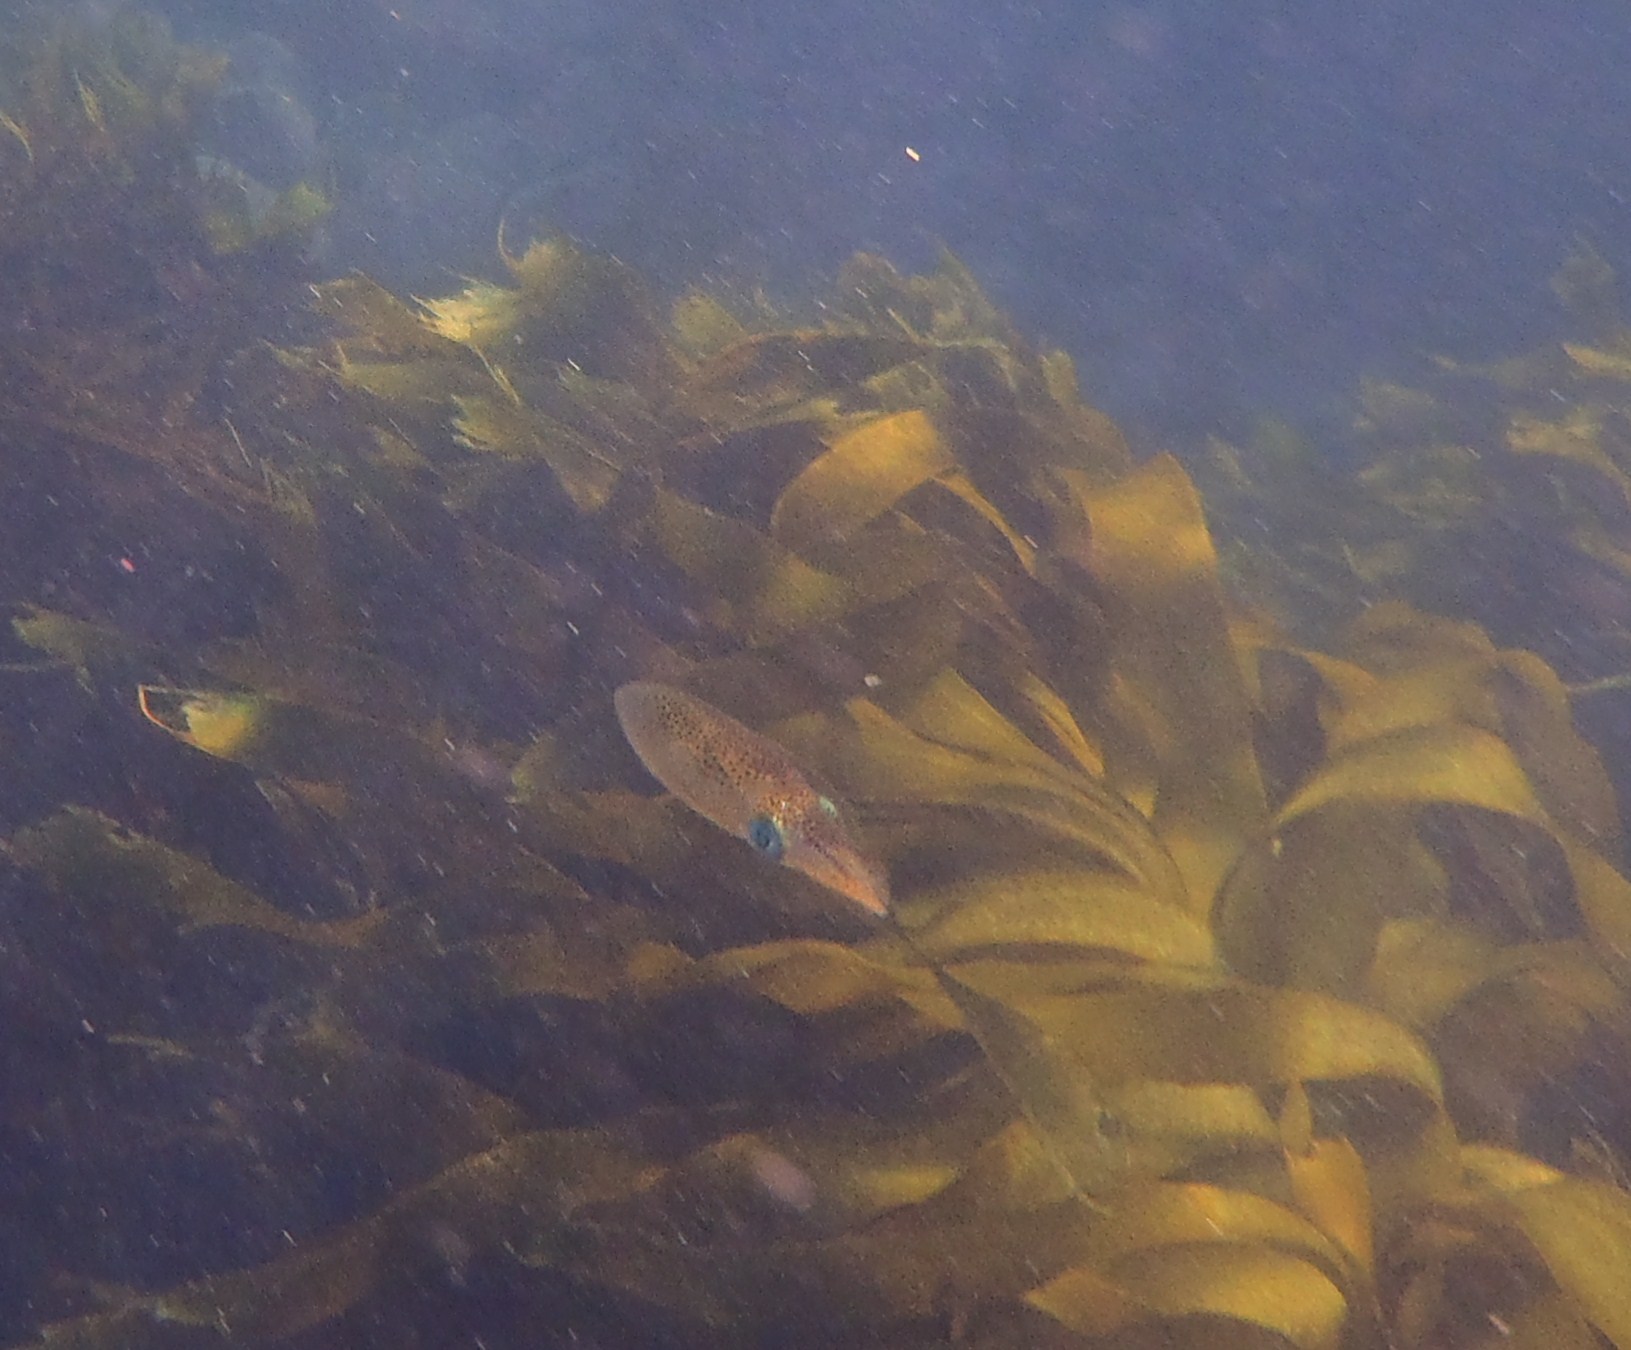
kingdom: Animalia
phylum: Mollusca
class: Cephalopoda
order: Myopsida
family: Loliginidae
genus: Sepioteuthis
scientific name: Sepioteuthis australis
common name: Southern reef squid
